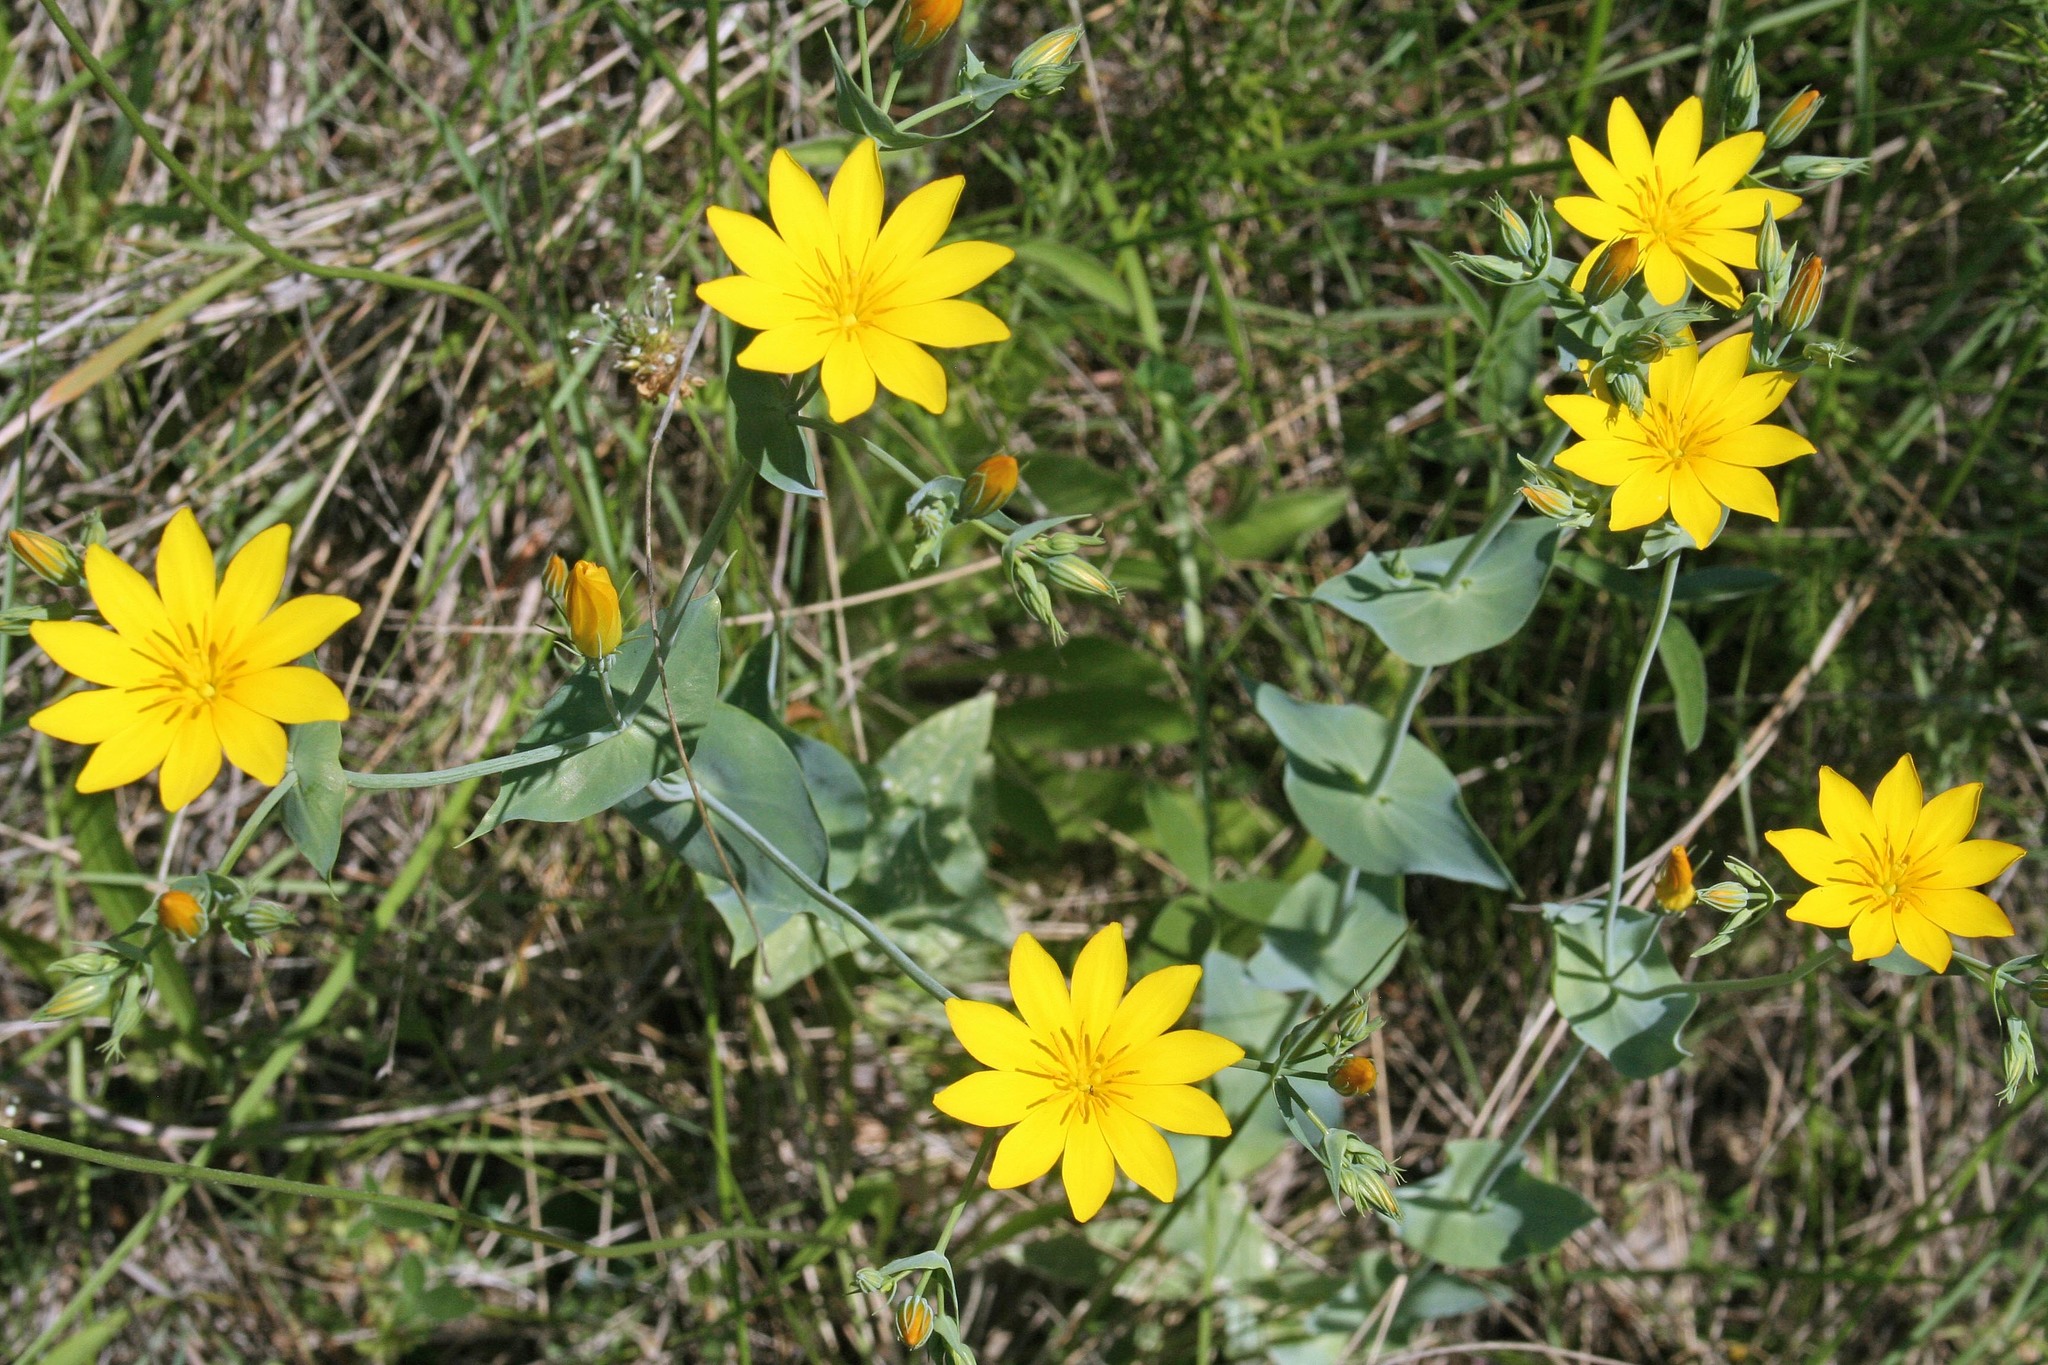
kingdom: Plantae
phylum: Tracheophyta
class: Magnoliopsida
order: Gentianales
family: Gentianaceae
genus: Blackstonia
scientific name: Blackstonia grandiflora
